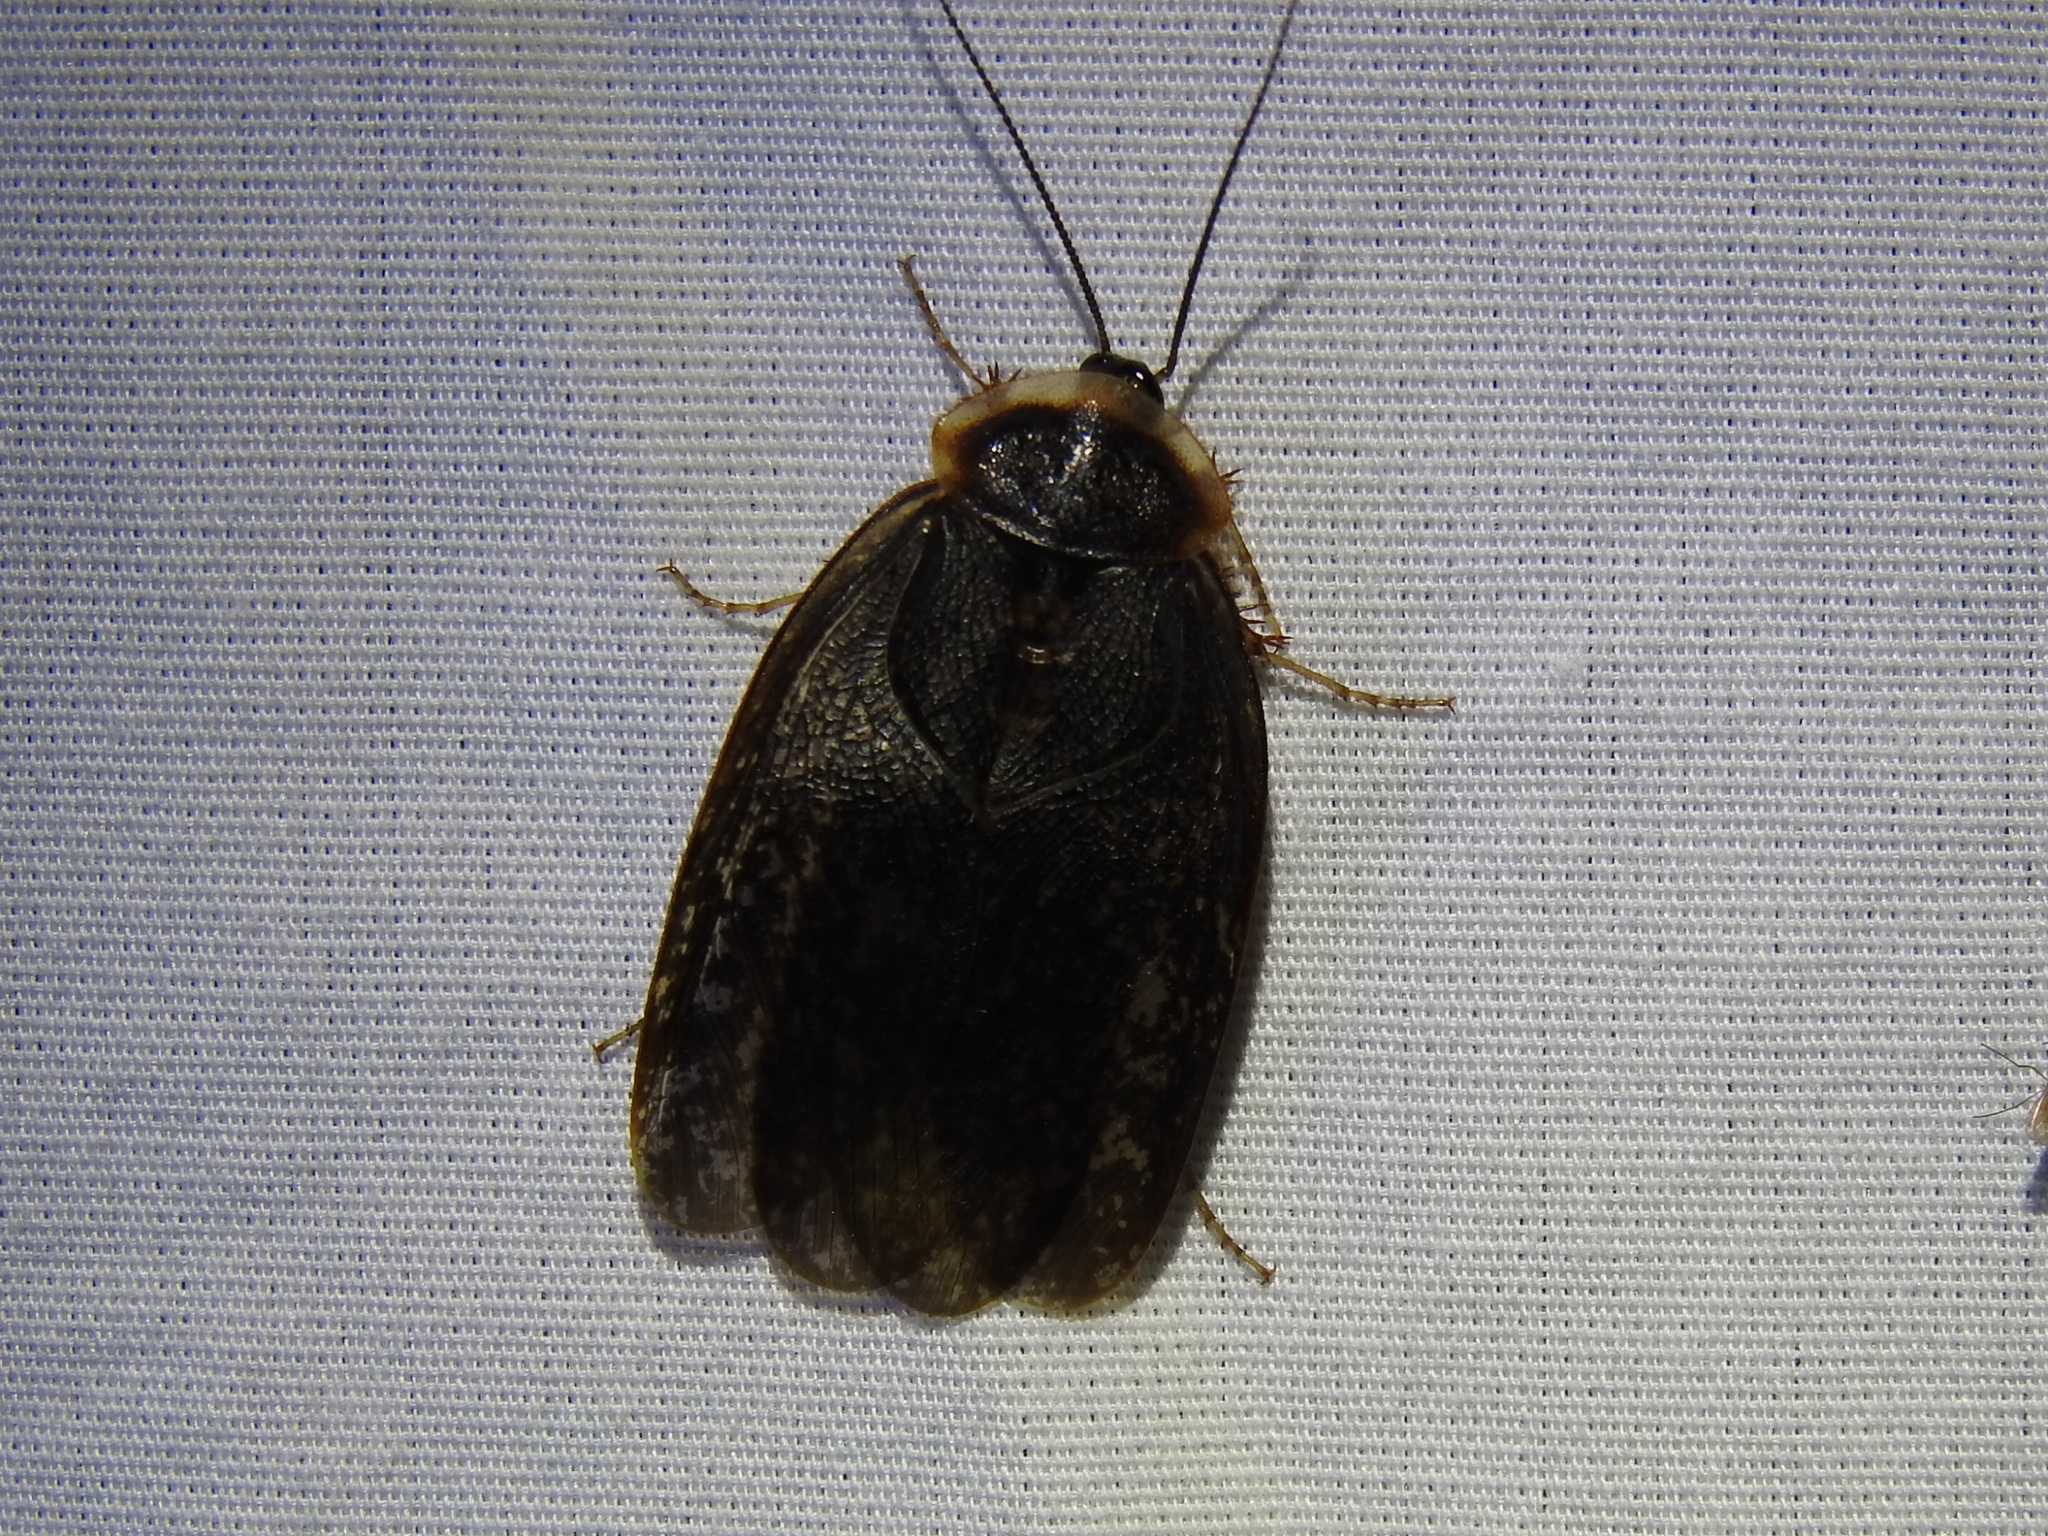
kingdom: Animalia
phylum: Arthropoda
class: Insecta
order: Blattodea
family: Corydiidae
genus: Arenivaga
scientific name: Arenivaga bolliana
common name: Boll's sand cockroach
